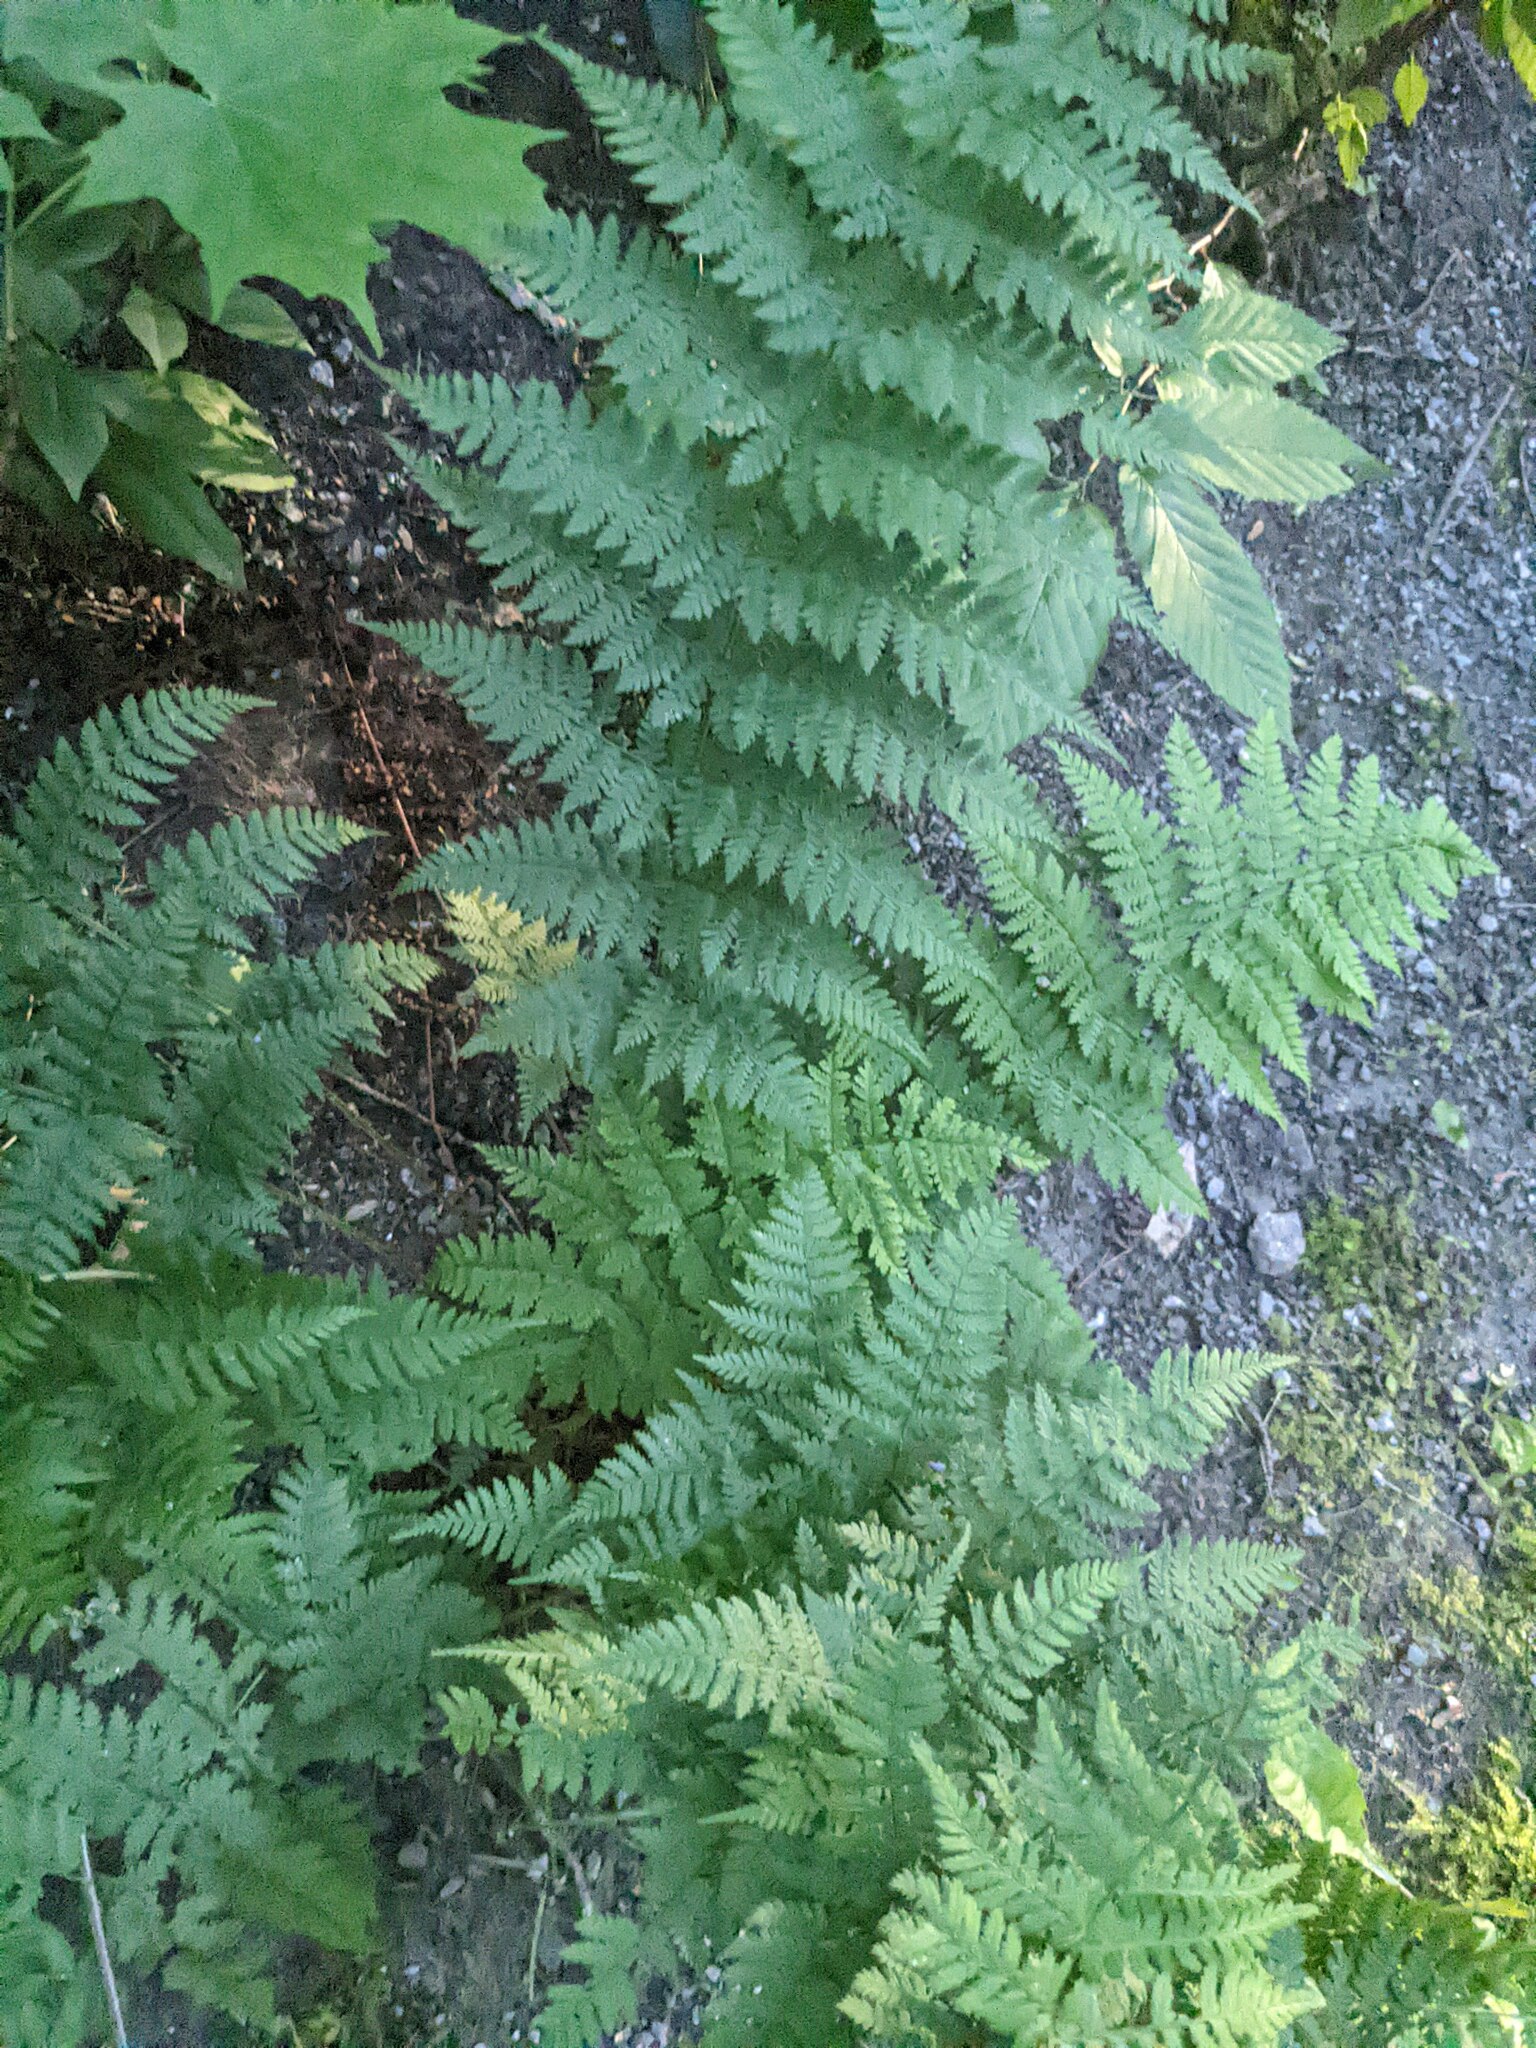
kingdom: Plantae
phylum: Tracheophyta
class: Polypodiopsida
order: Polypodiales
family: Dryopteridaceae
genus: Dryopteris
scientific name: Dryopteris intermedia
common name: Evergreen wood fern
